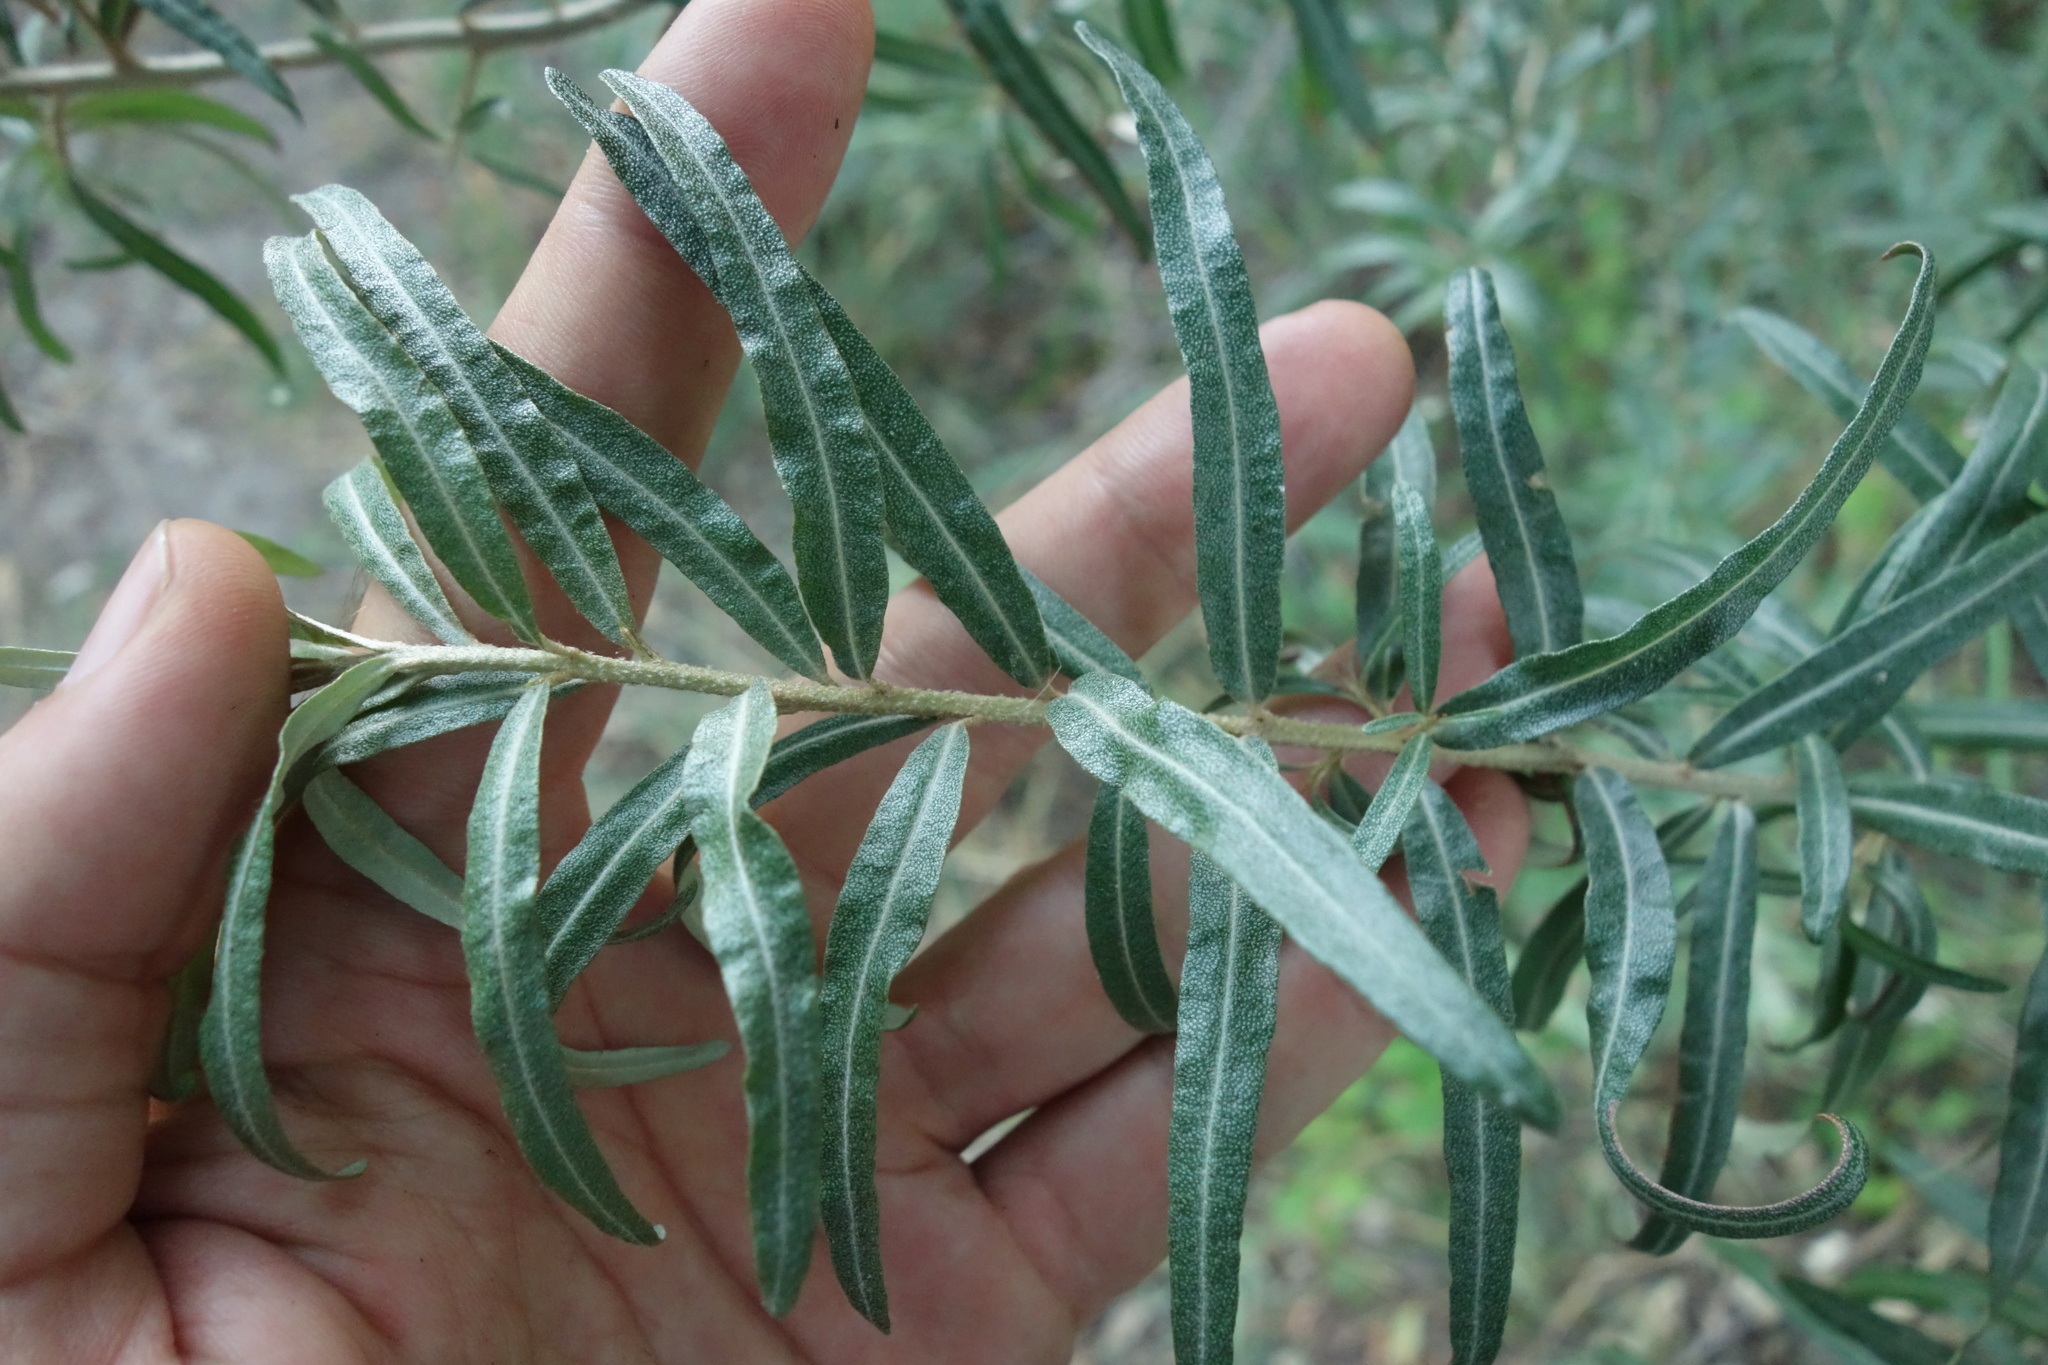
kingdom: Plantae
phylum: Tracheophyta
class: Magnoliopsida
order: Rosales
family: Elaeagnaceae
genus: Hippophae
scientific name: Hippophae rhamnoides
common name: Sea-buckthorn
